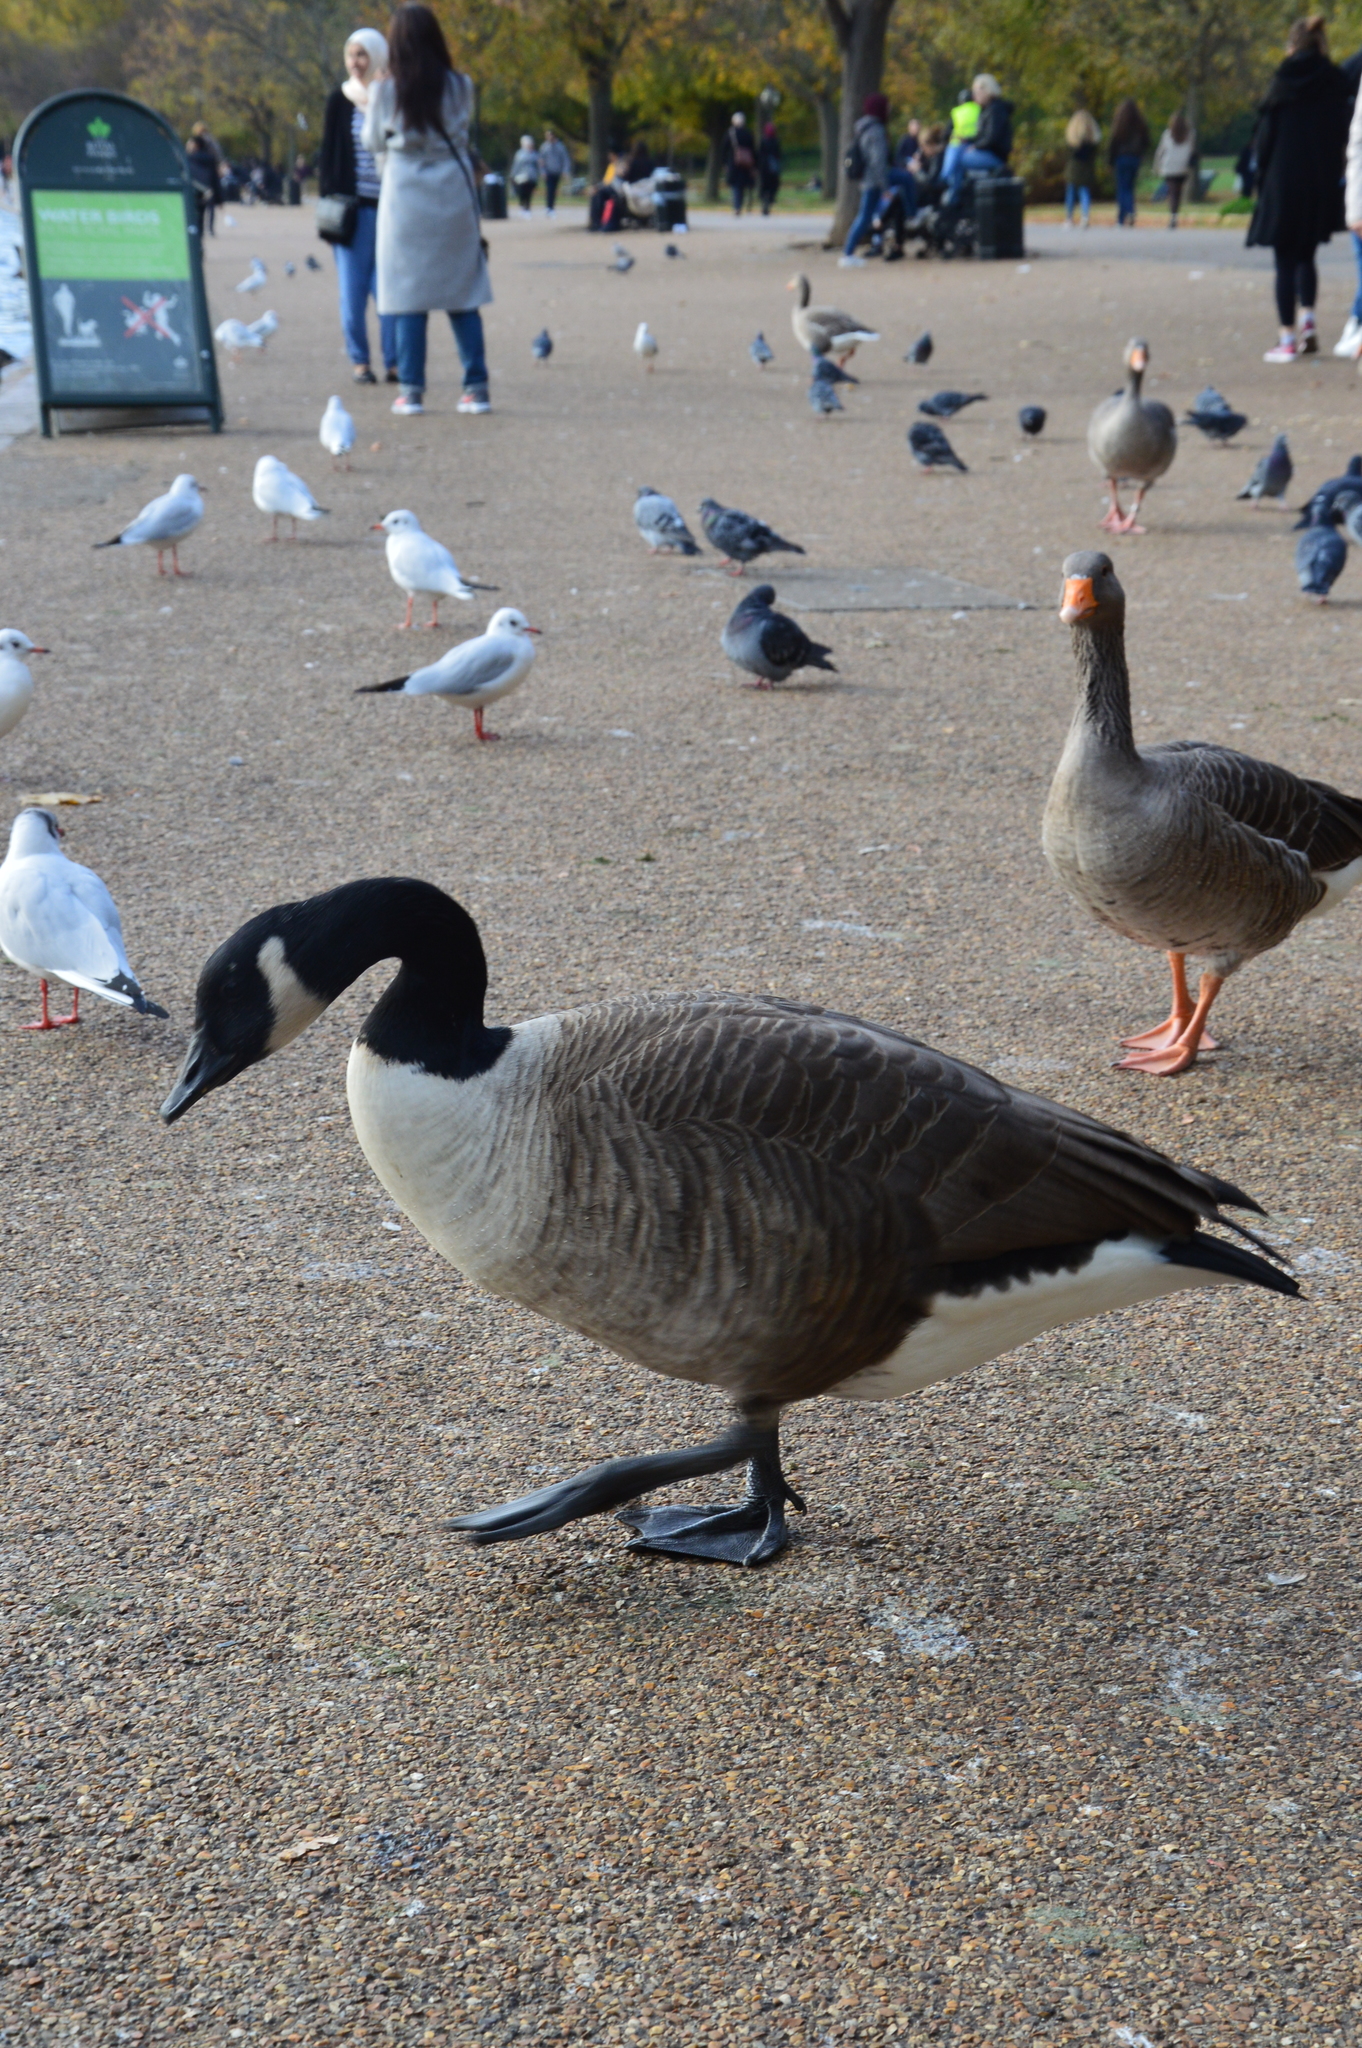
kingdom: Animalia
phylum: Chordata
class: Aves
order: Anseriformes
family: Anatidae
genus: Branta
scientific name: Branta canadensis
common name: Canada goose
